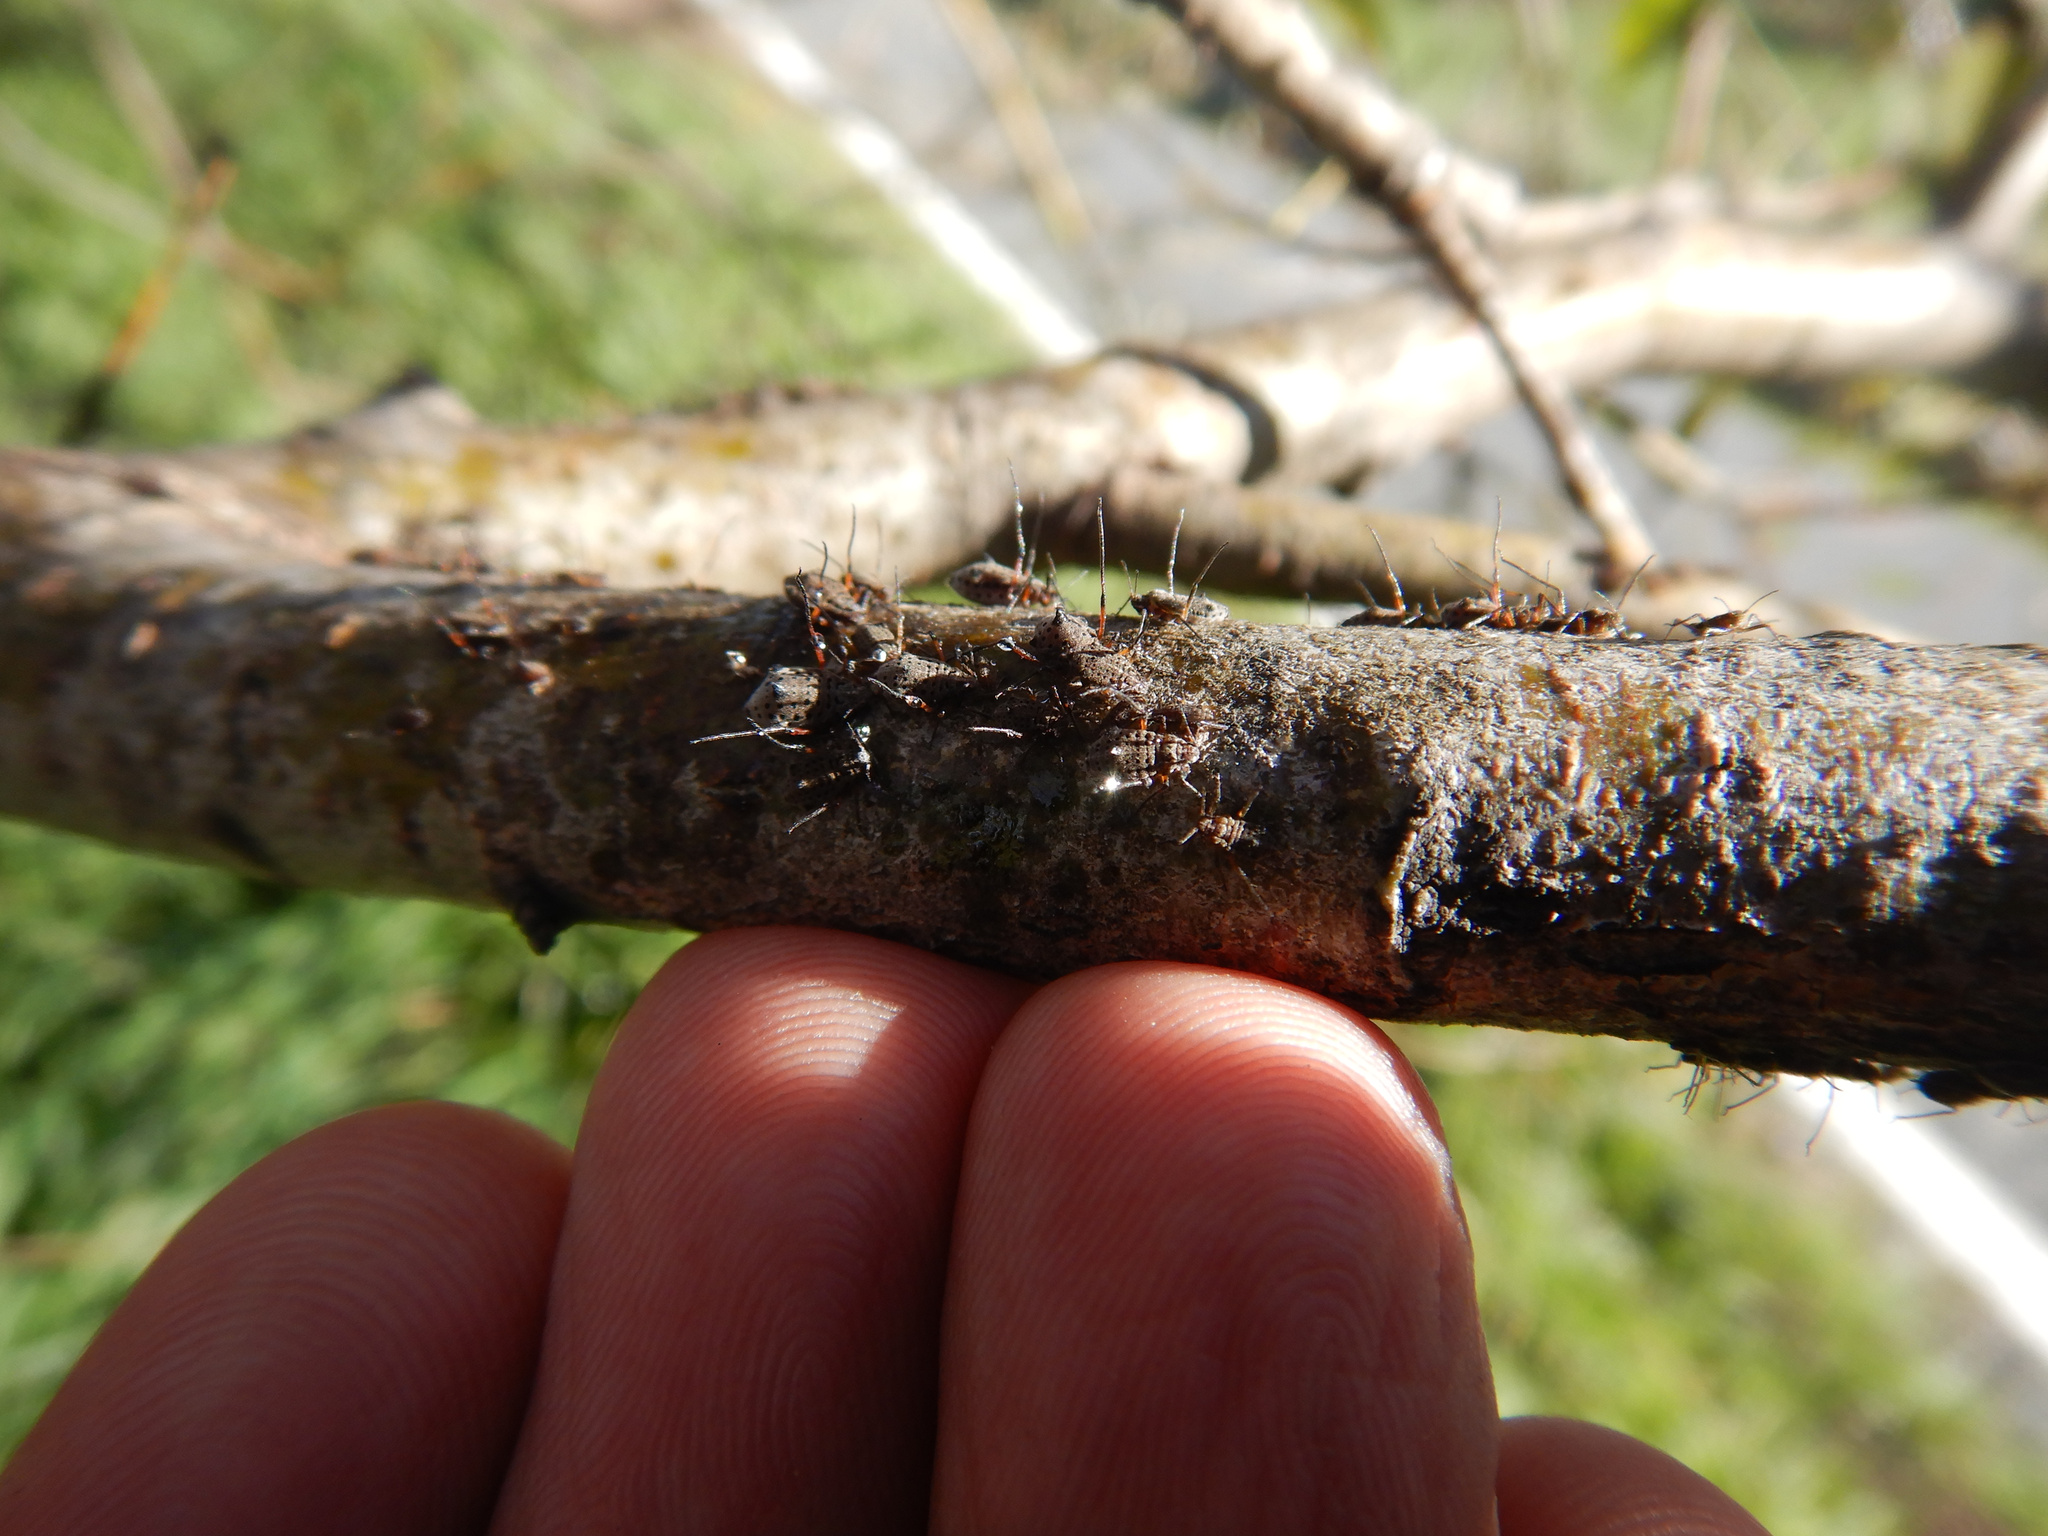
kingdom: Animalia
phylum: Arthropoda
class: Insecta
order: Hemiptera
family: Aphididae
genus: Tuberolachnus
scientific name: Tuberolachnus salignus
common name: Giant willow aphid
